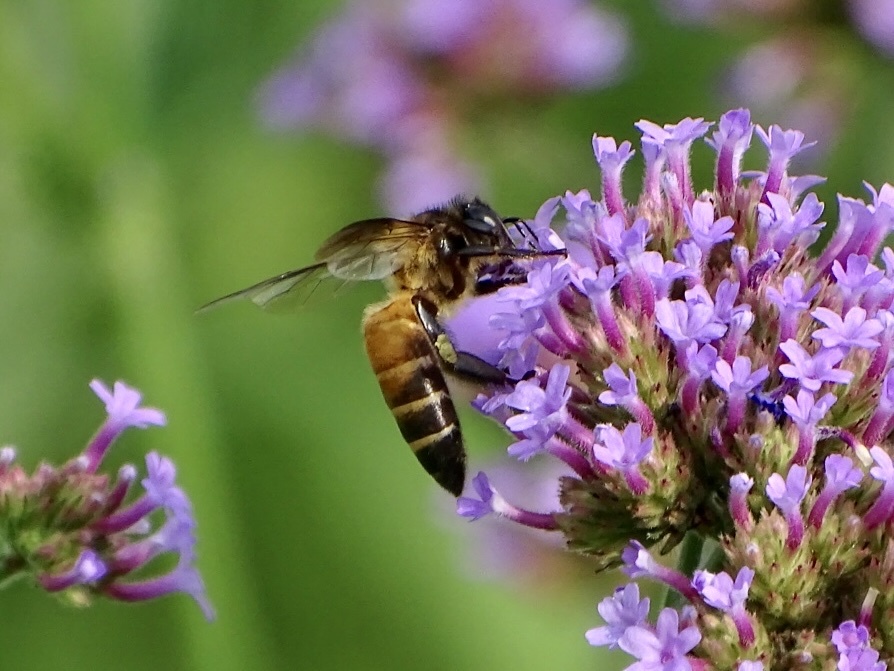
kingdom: Animalia
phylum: Arthropoda
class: Insecta
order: Hymenoptera
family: Apidae
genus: Apis
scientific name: Apis dorsata
